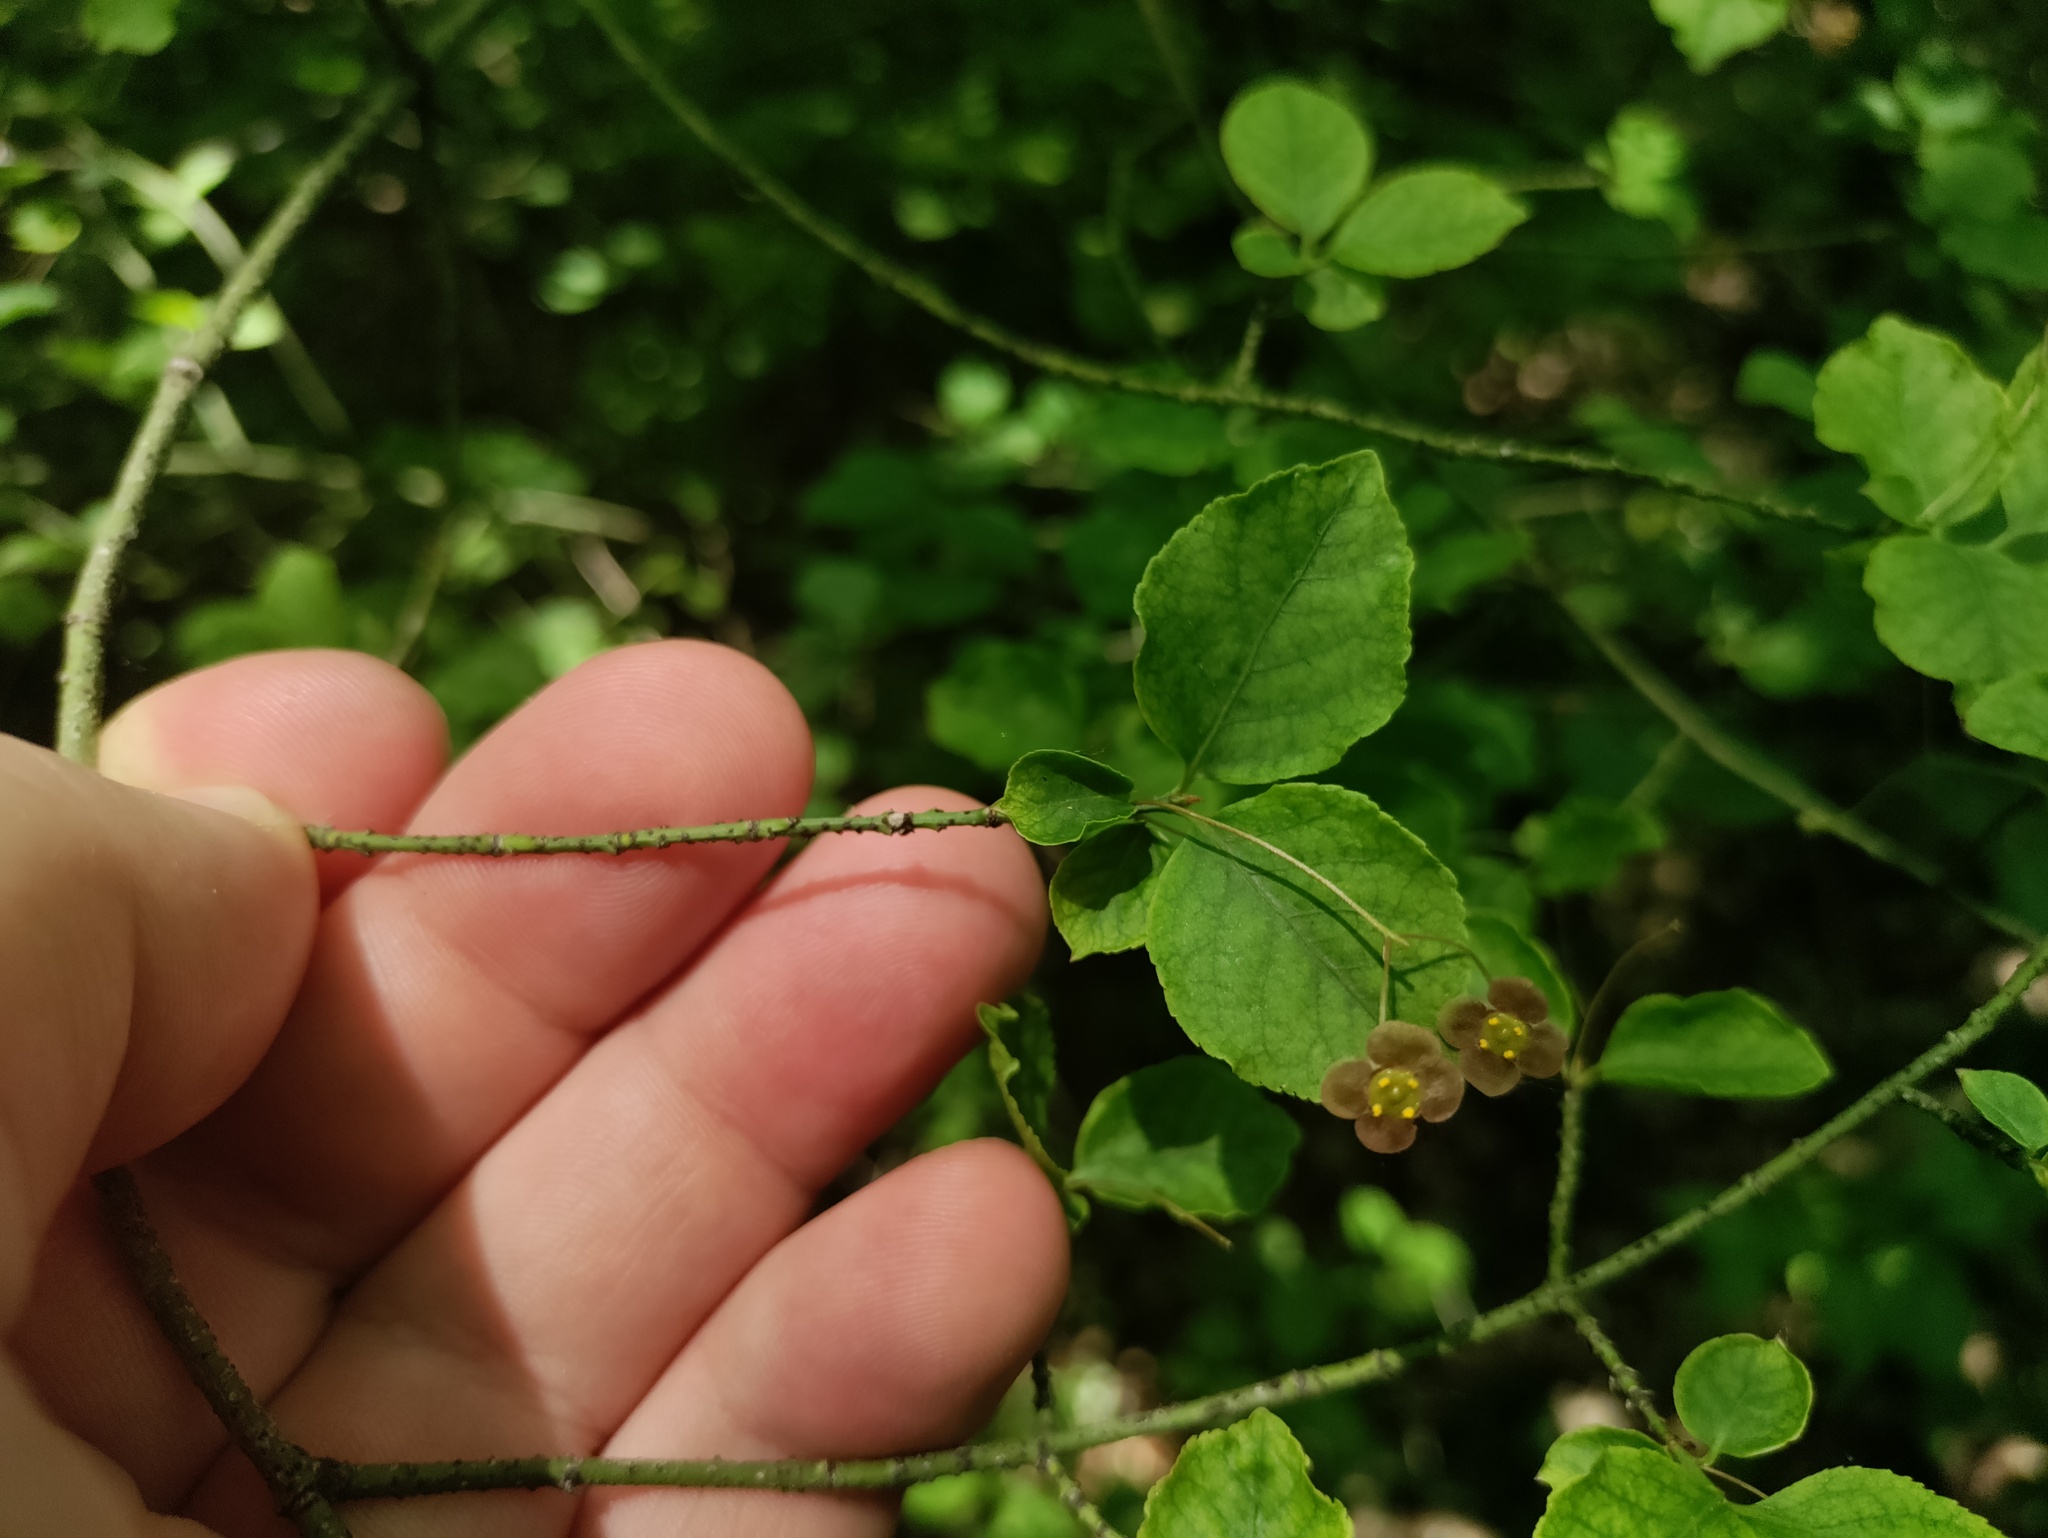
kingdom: Plantae
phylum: Tracheophyta
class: Magnoliopsida
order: Celastrales
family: Celastraceae
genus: Euonymus
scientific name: Euonymus verrucosus
